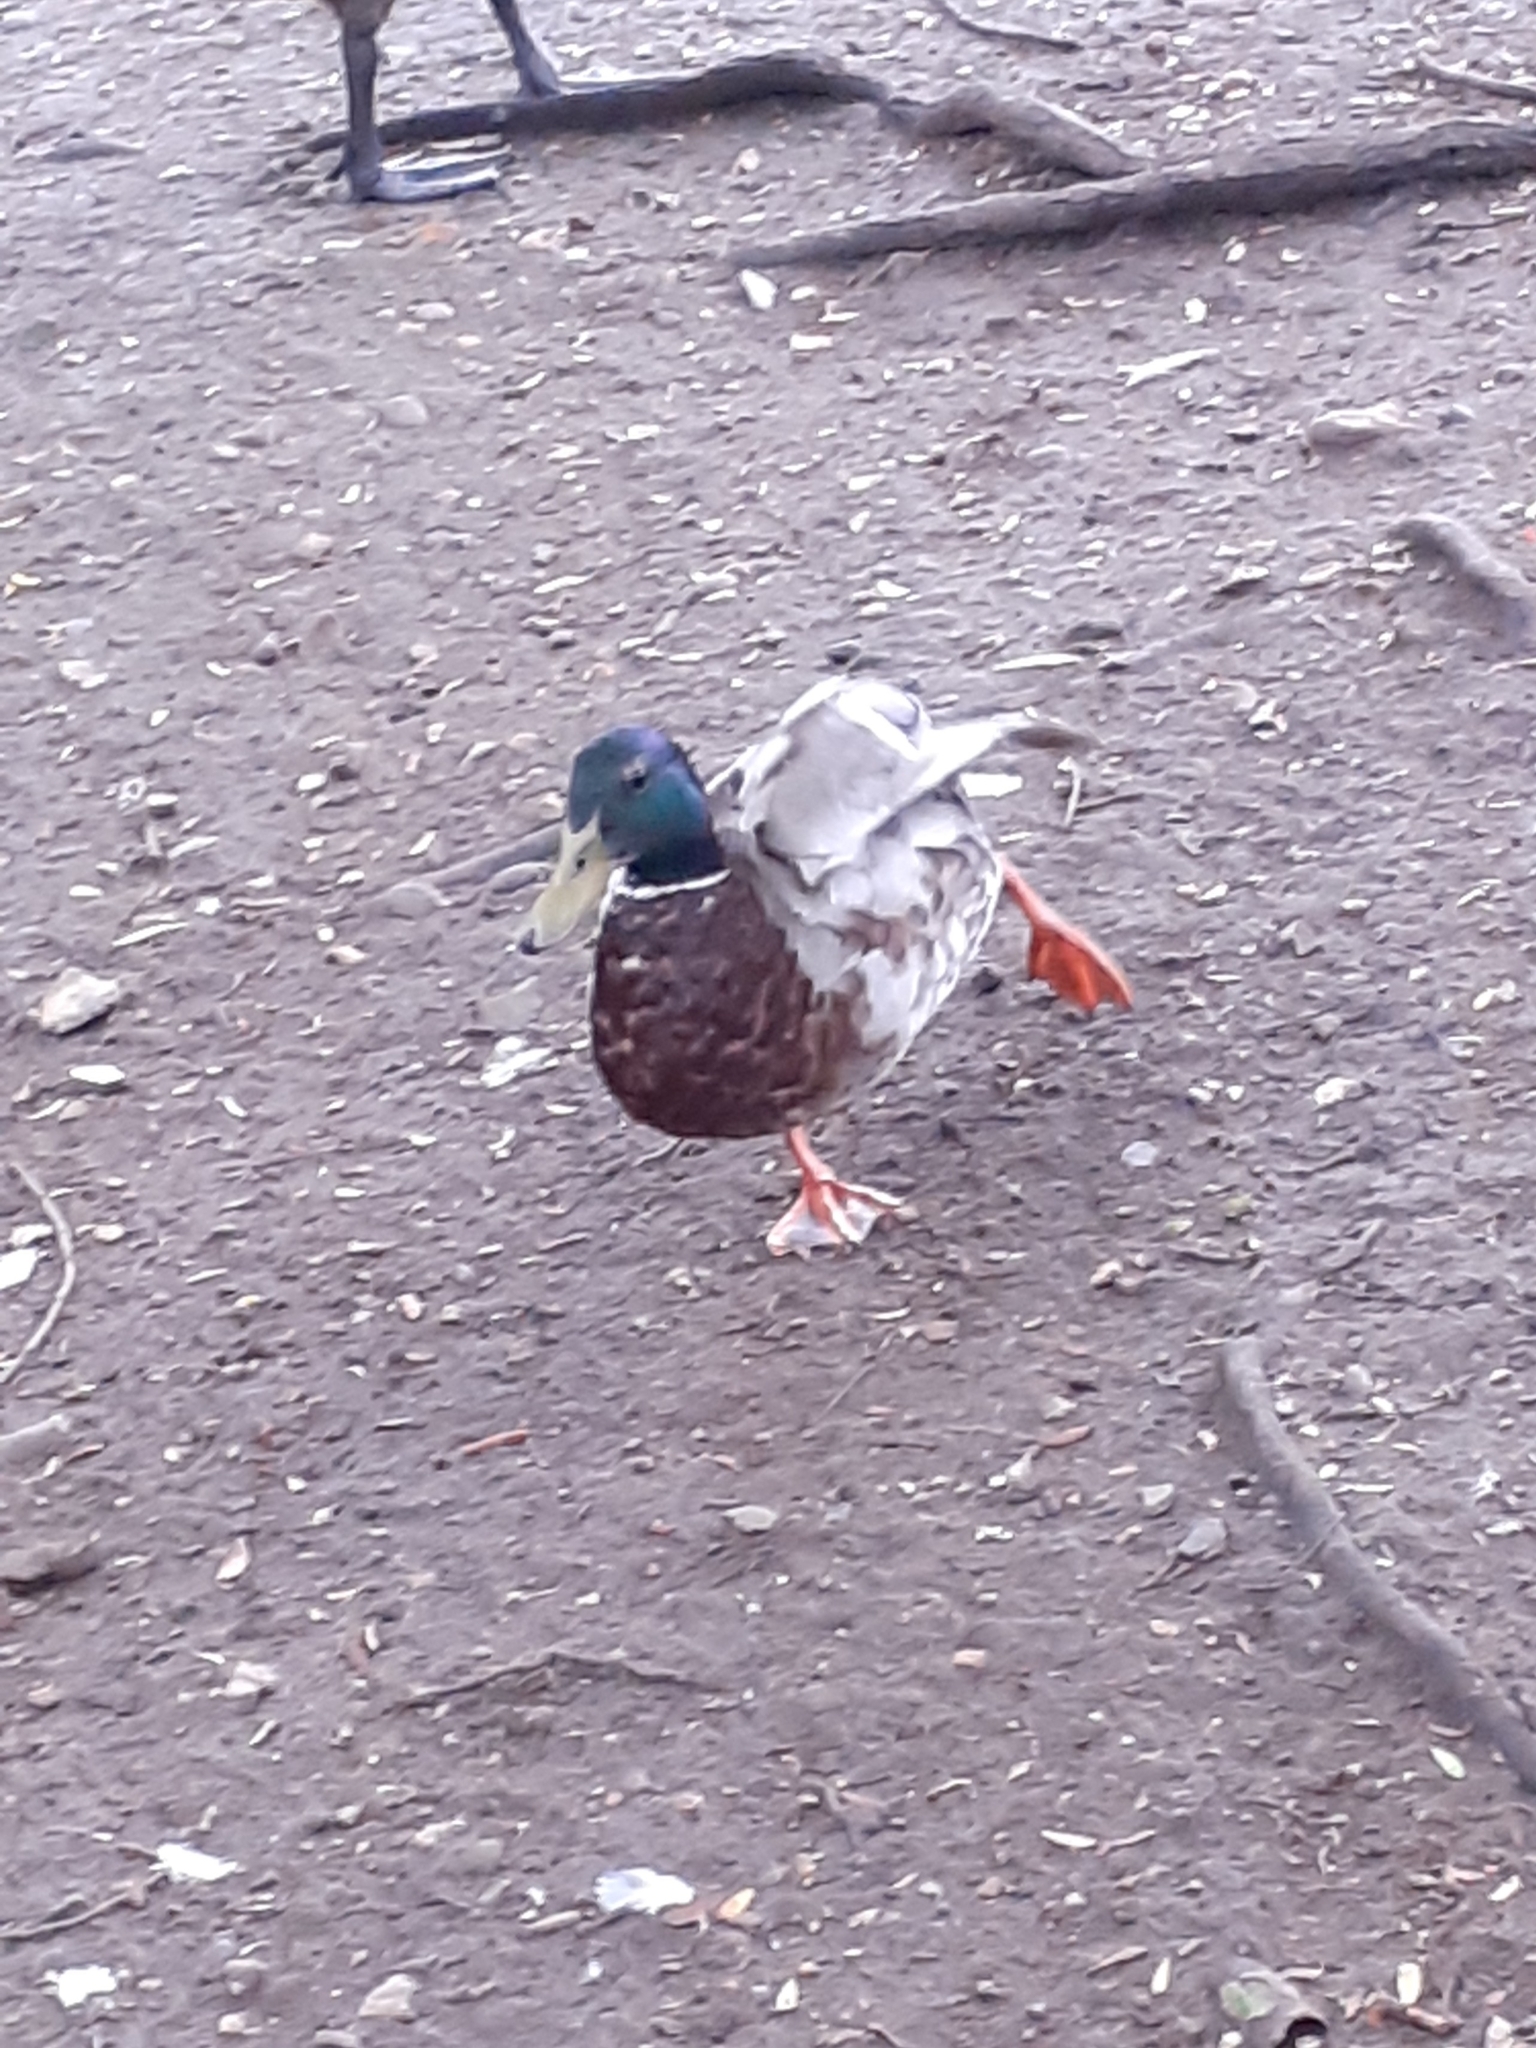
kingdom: Animalia
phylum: Chordata
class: Aves
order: Anseriformes
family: Anatidae
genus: Anas
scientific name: Anas platyrhynchos
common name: Mallard
